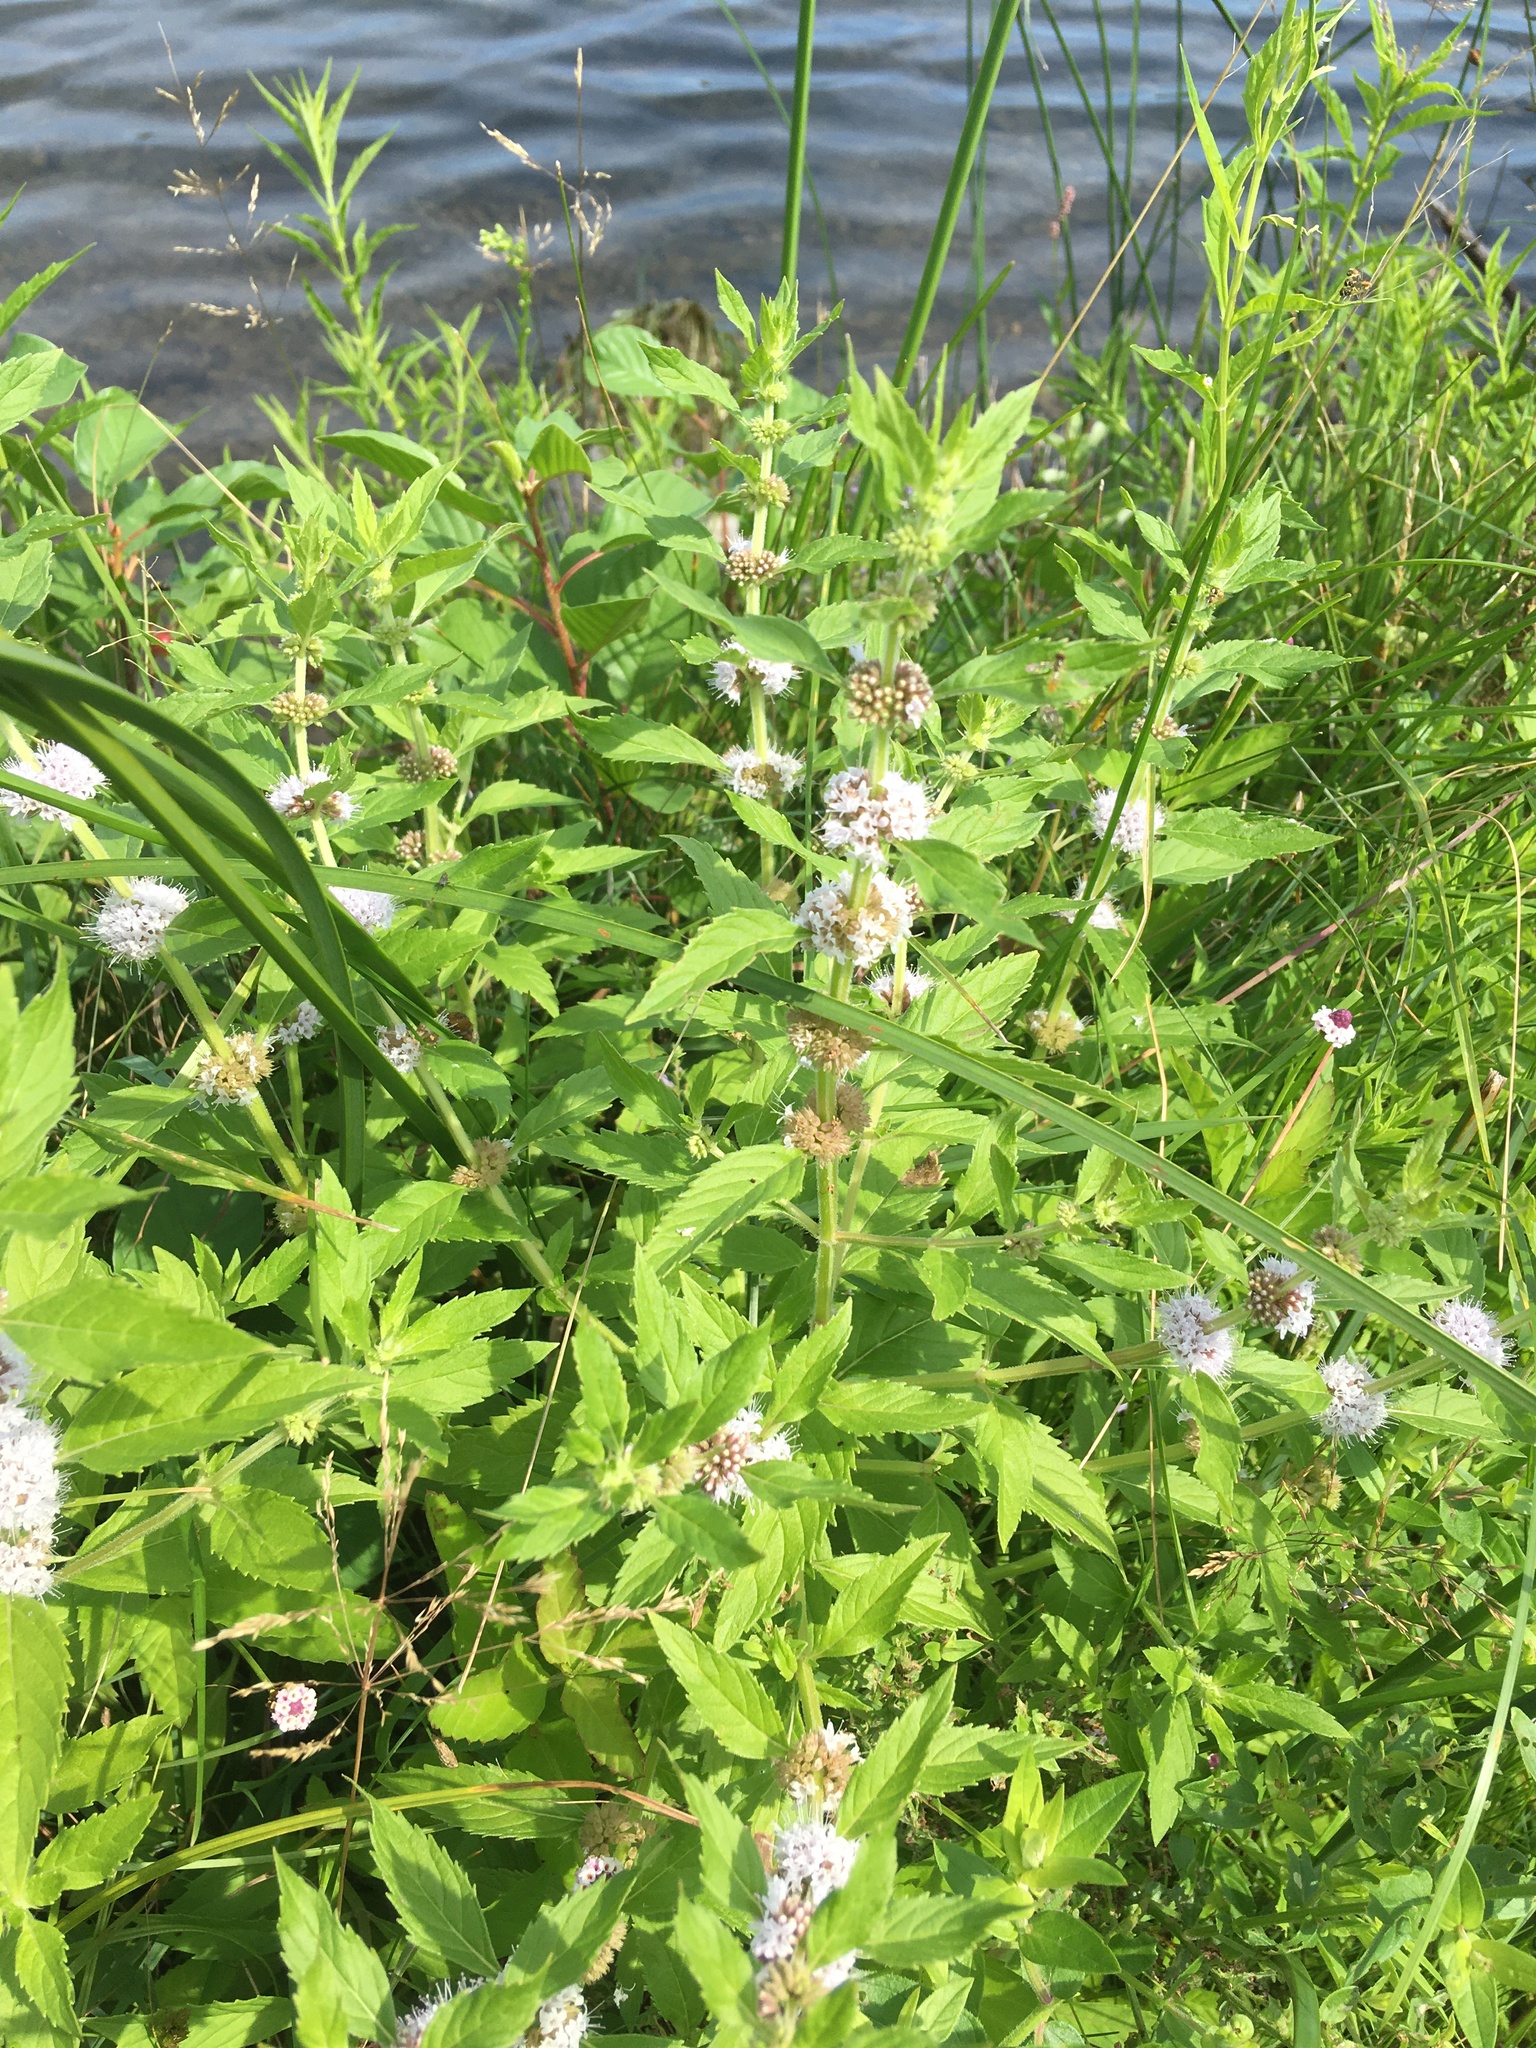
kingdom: Plantae
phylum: Tracheophyta
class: Magnoliopsida
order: Lamiales
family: Lamiaceae
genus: Lycopus
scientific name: Lycopus americanus
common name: American bugleweed
